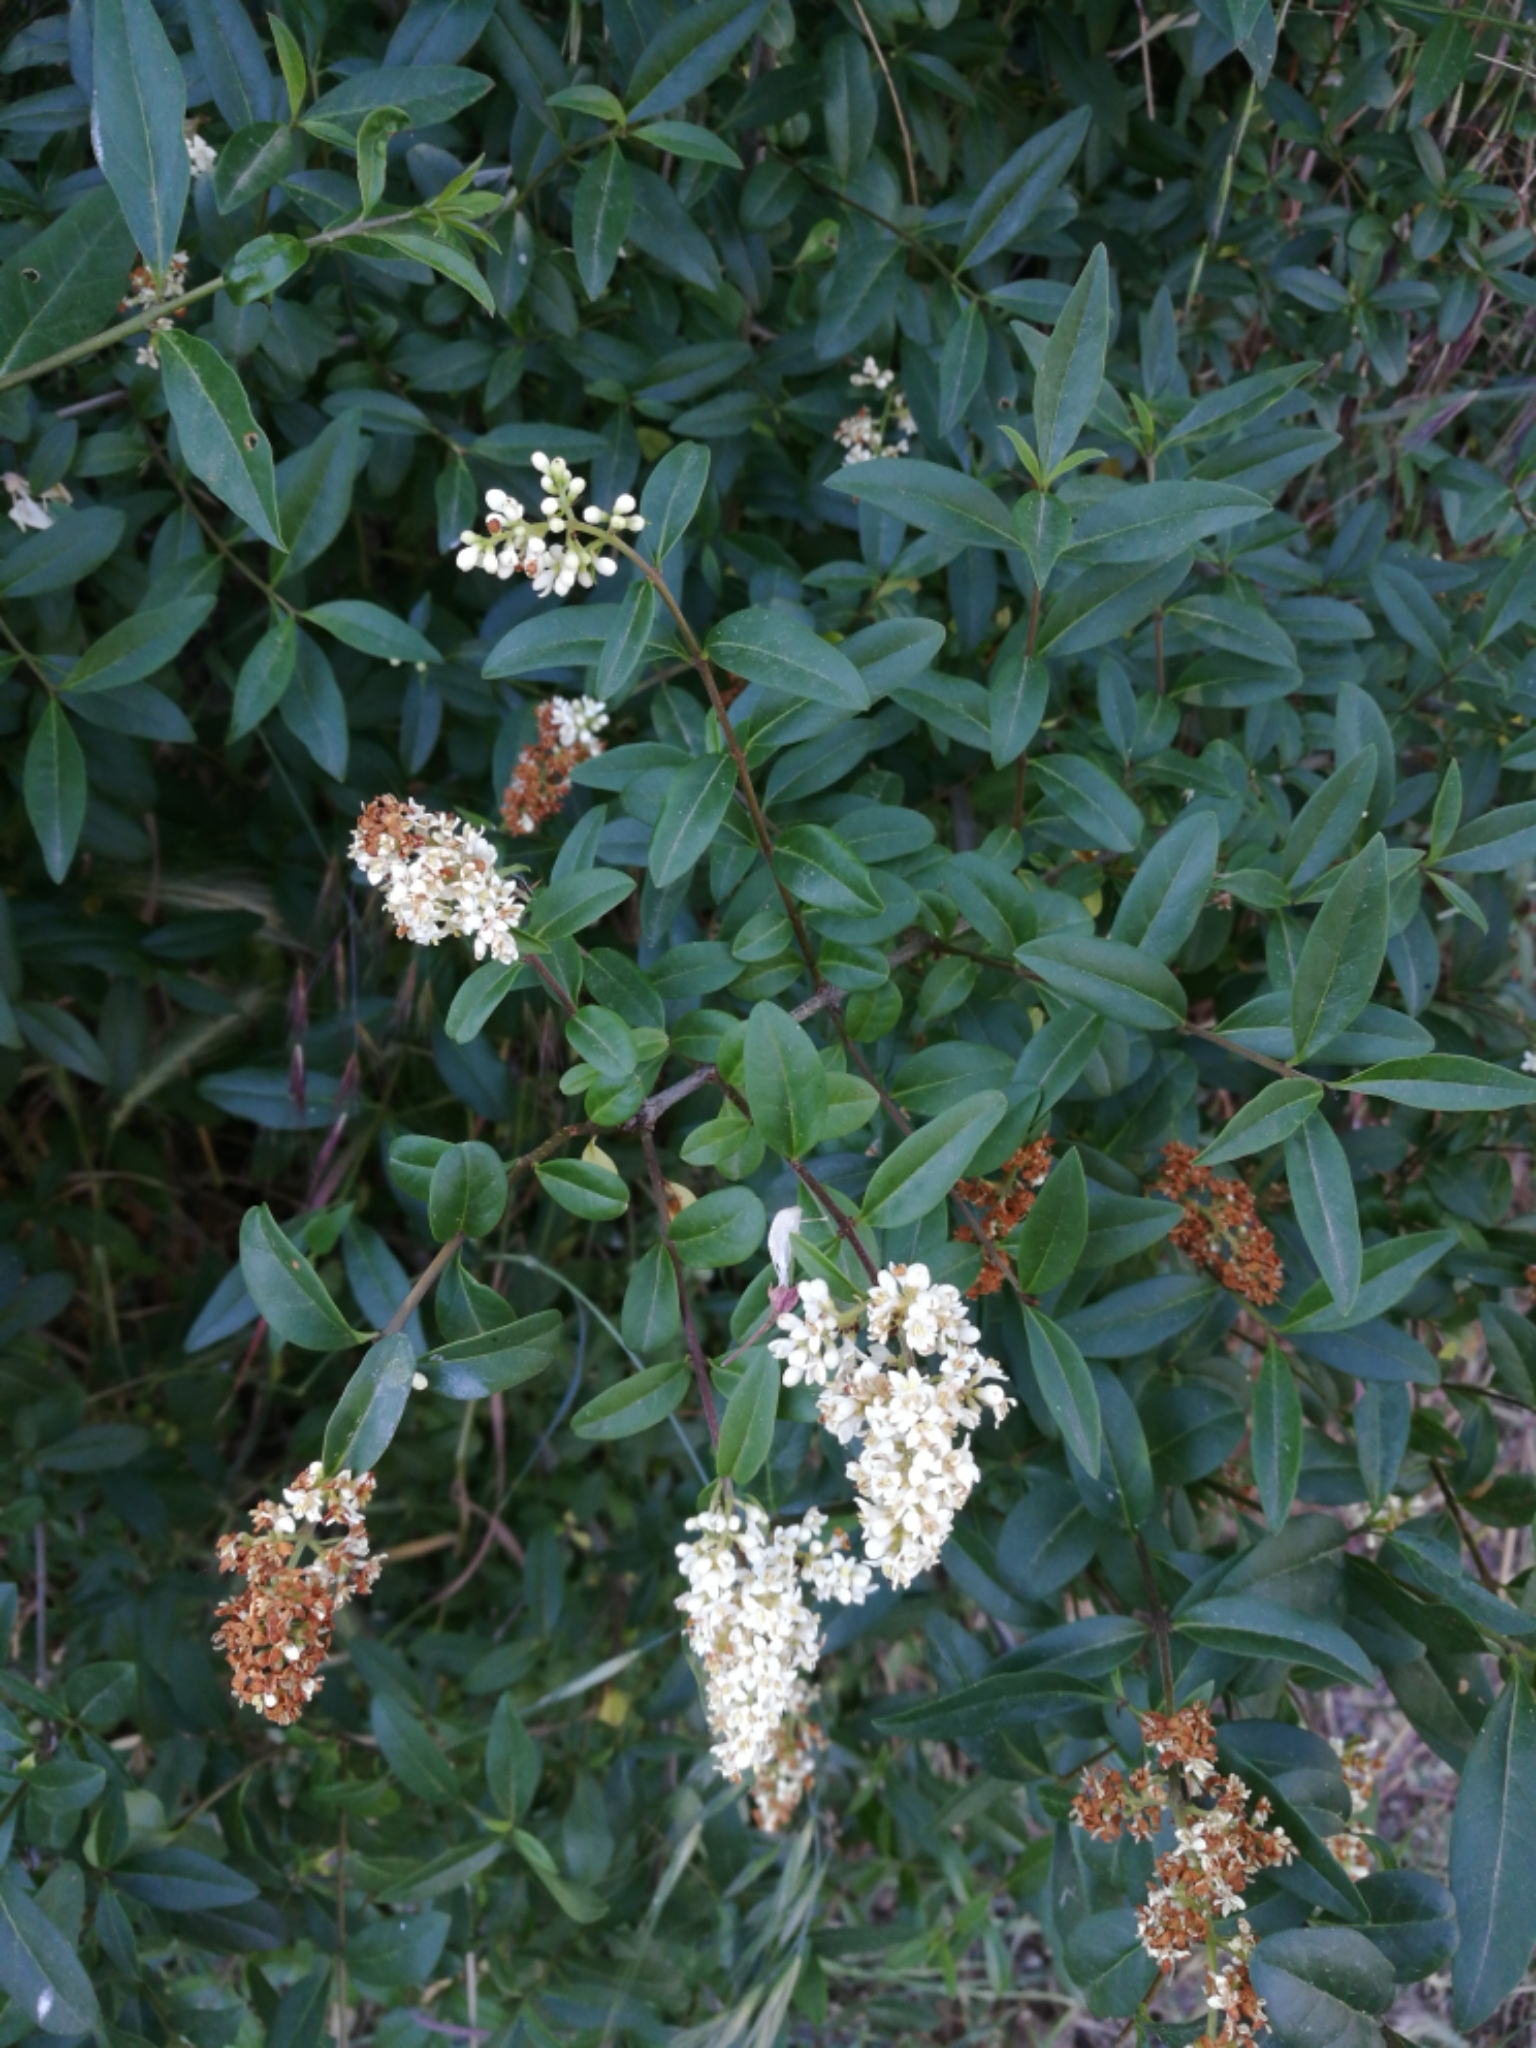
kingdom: Plantae
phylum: Tracheophyta
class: Magnoliopsida
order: Lamiales
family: Oleaceae
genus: Ligustrum
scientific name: Ligustrum vulgare
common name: Wild privet
